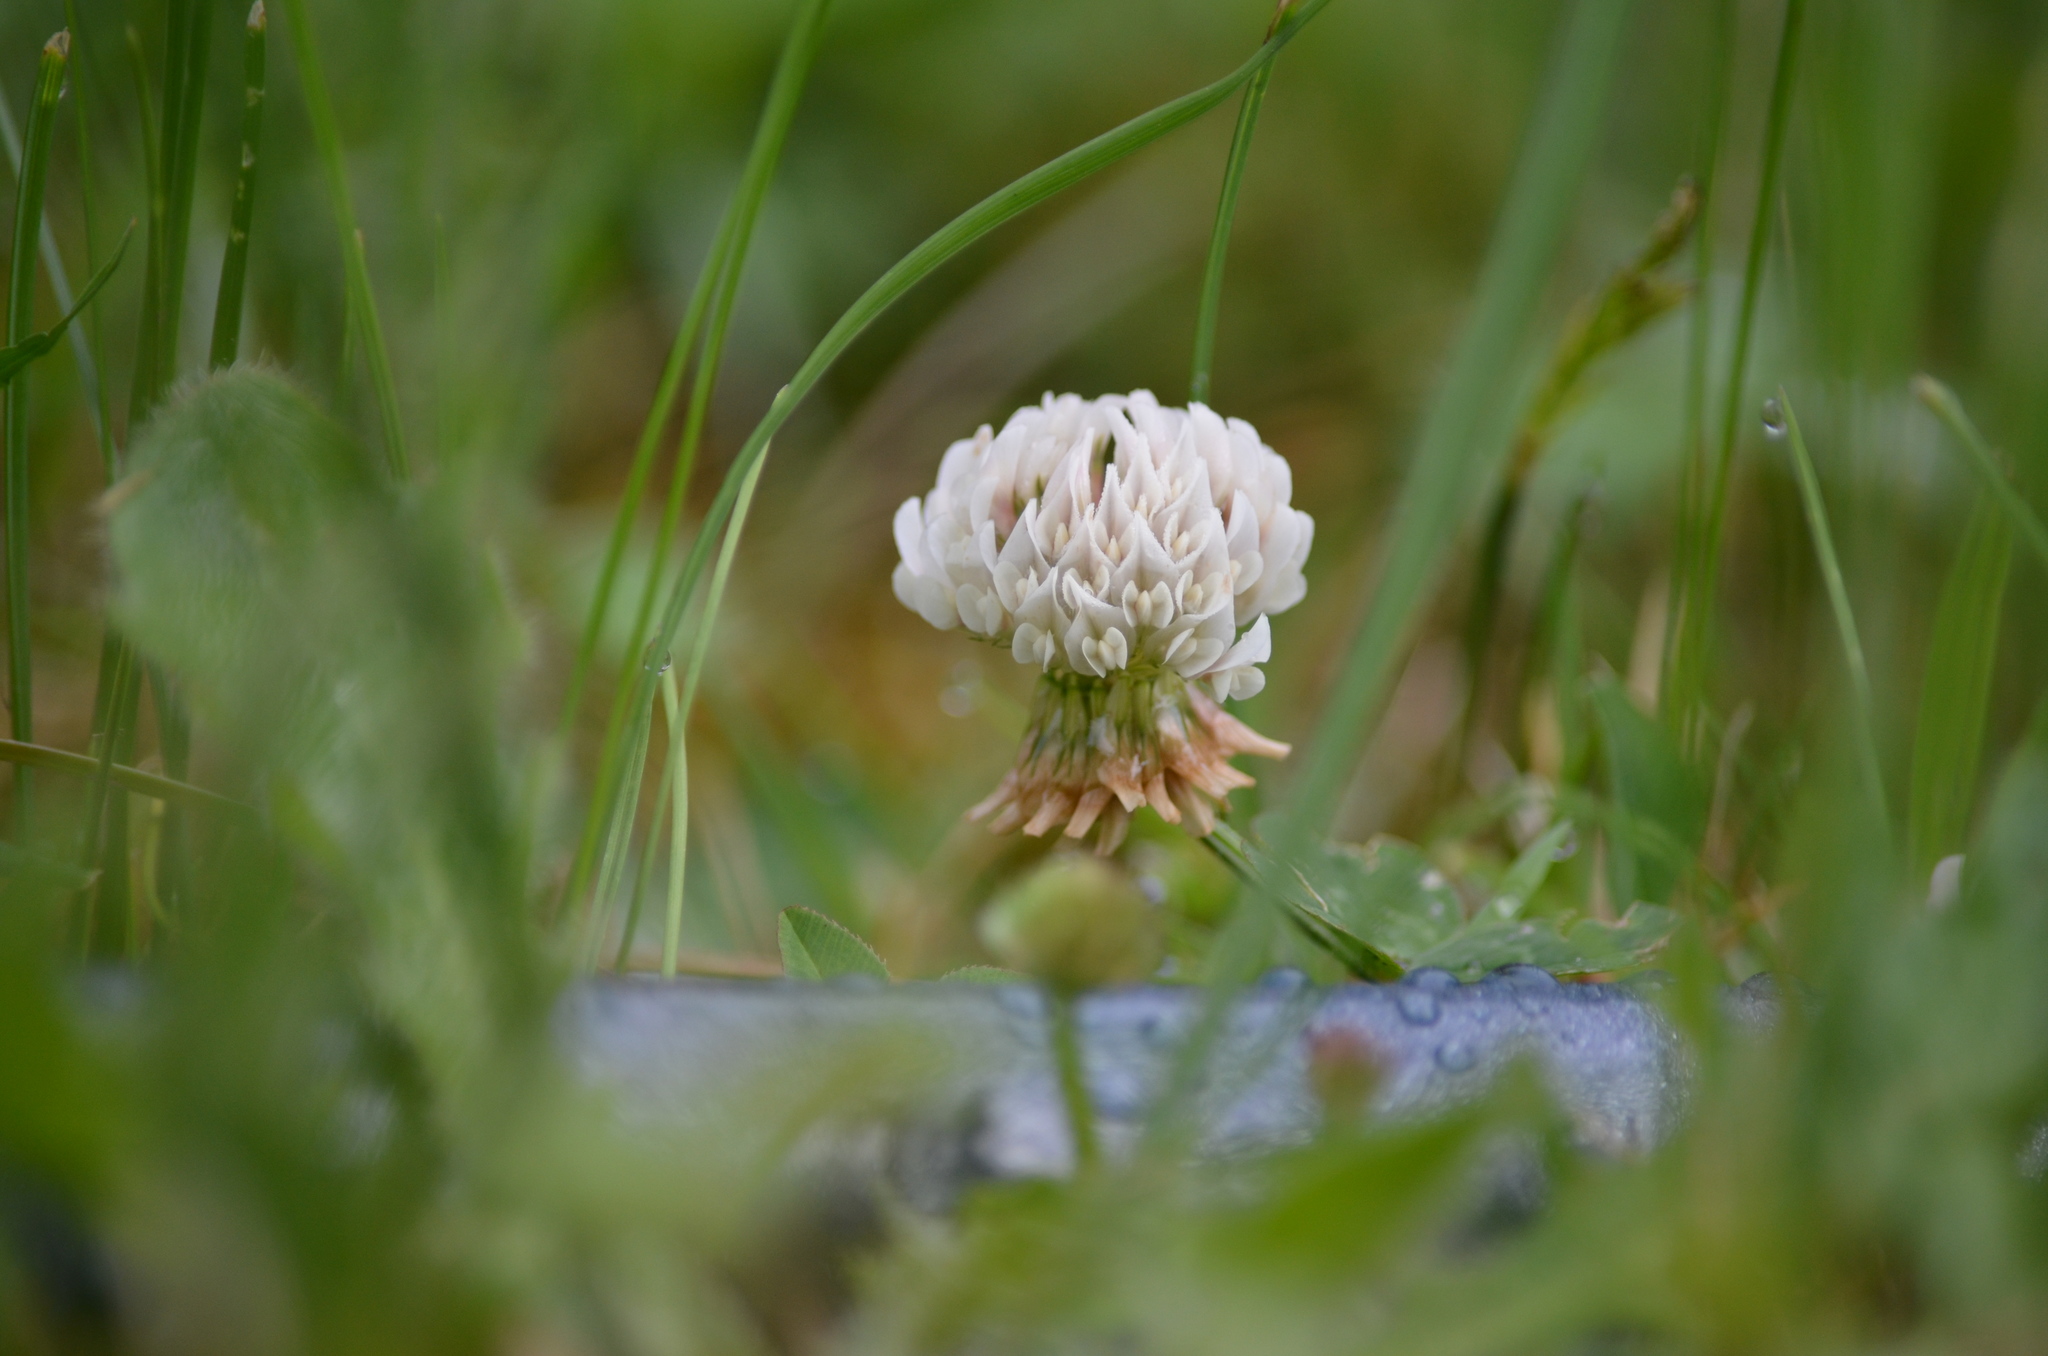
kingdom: Plantae
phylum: Tracheophyta
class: Magnoliopsida
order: Fabales
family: Fabaceae
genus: Trifolium
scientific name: Trifolium repens
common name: White clover
